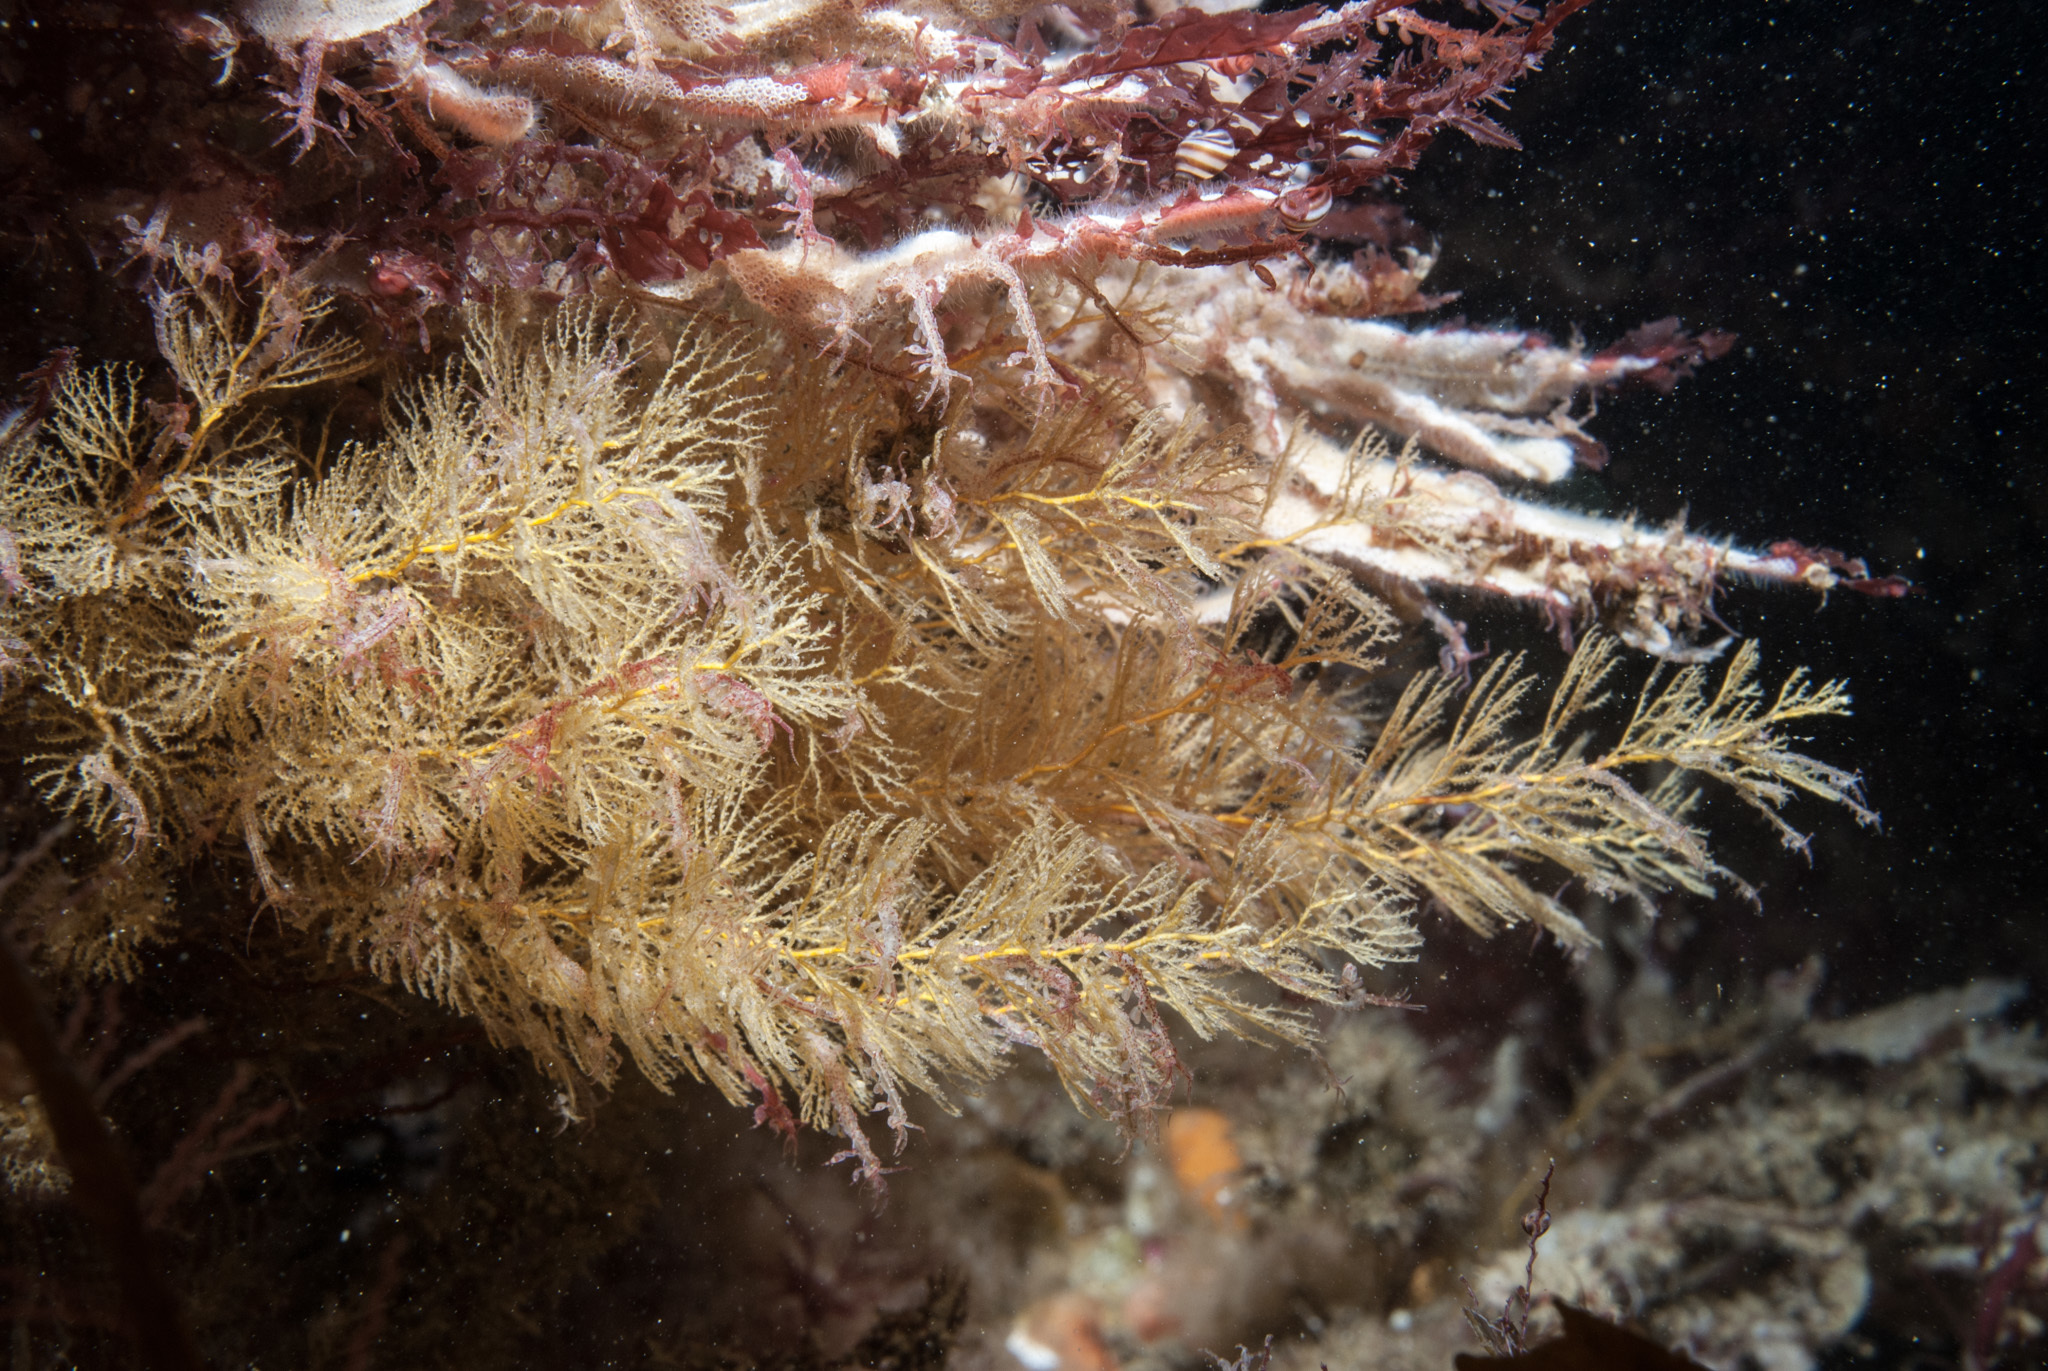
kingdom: Animalia
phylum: Cnidaria
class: Hydrozoa
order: Leptothecata
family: Sertulariidae
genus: Sertularia
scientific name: Sertularia argentea
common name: Squirrel’s tail hydroid
